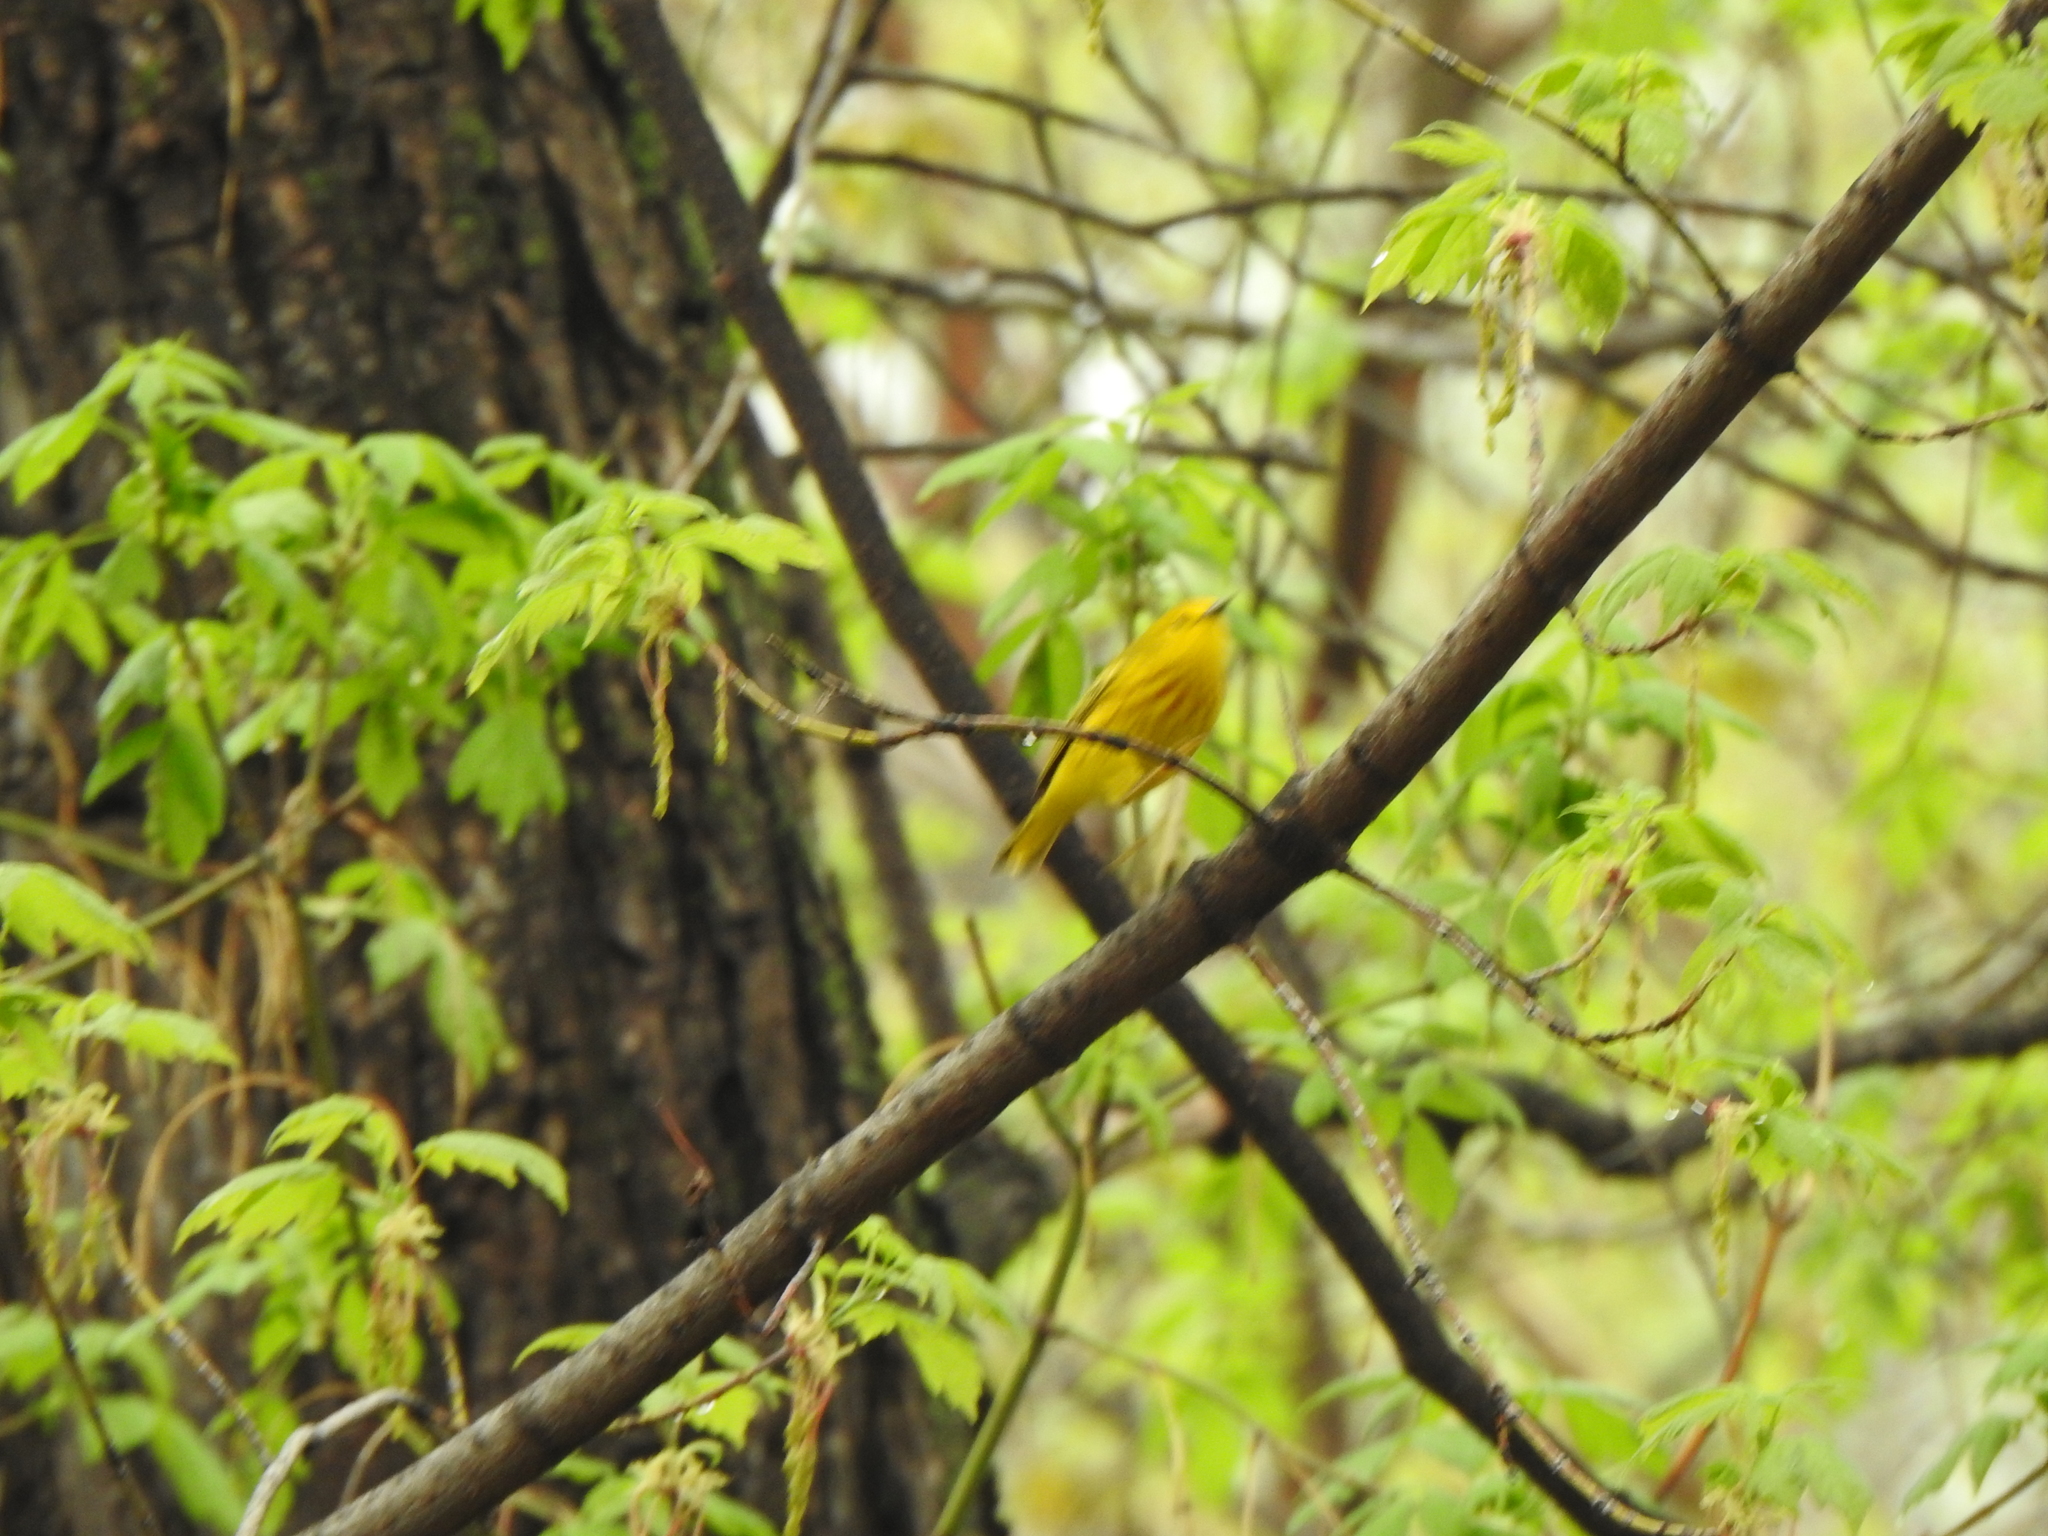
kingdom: Animalia
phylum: Chordata
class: Aves
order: Passeriformes
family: Parulidae
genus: Setophaga
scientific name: Setophaga petechia
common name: Yellow warbler
